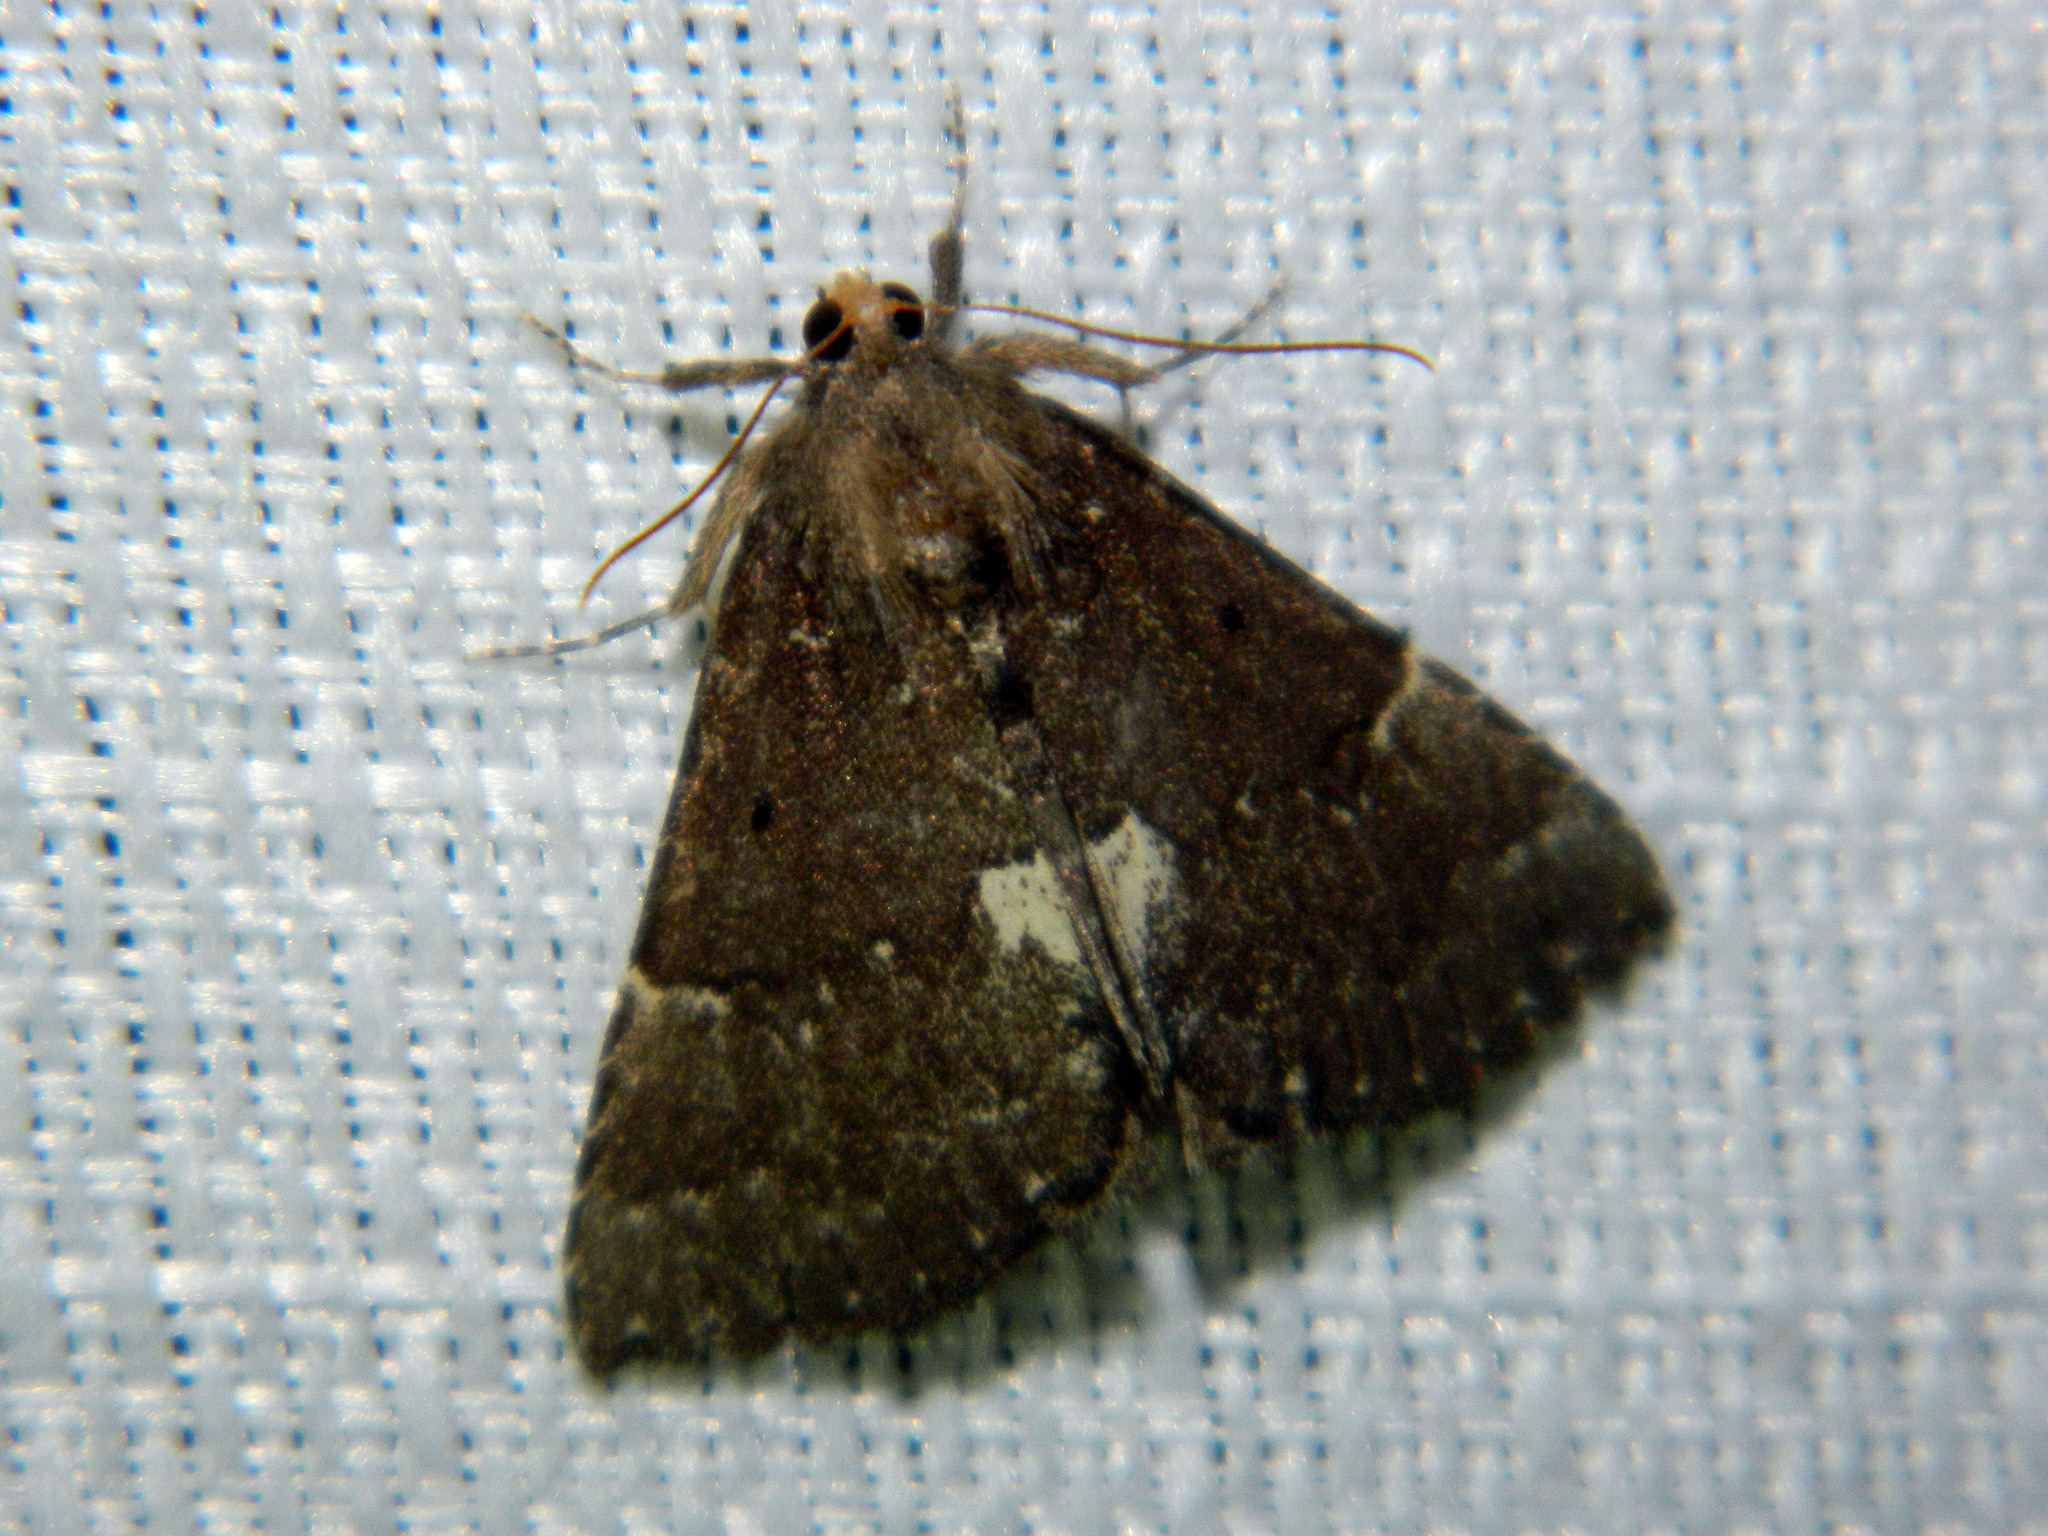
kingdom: Animalia
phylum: Arthropoda
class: Insecta
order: Lepidoptera
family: Erebidae
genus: Hypena
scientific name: Hypena bijugalis
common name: Dimorphic bomolocha moth
